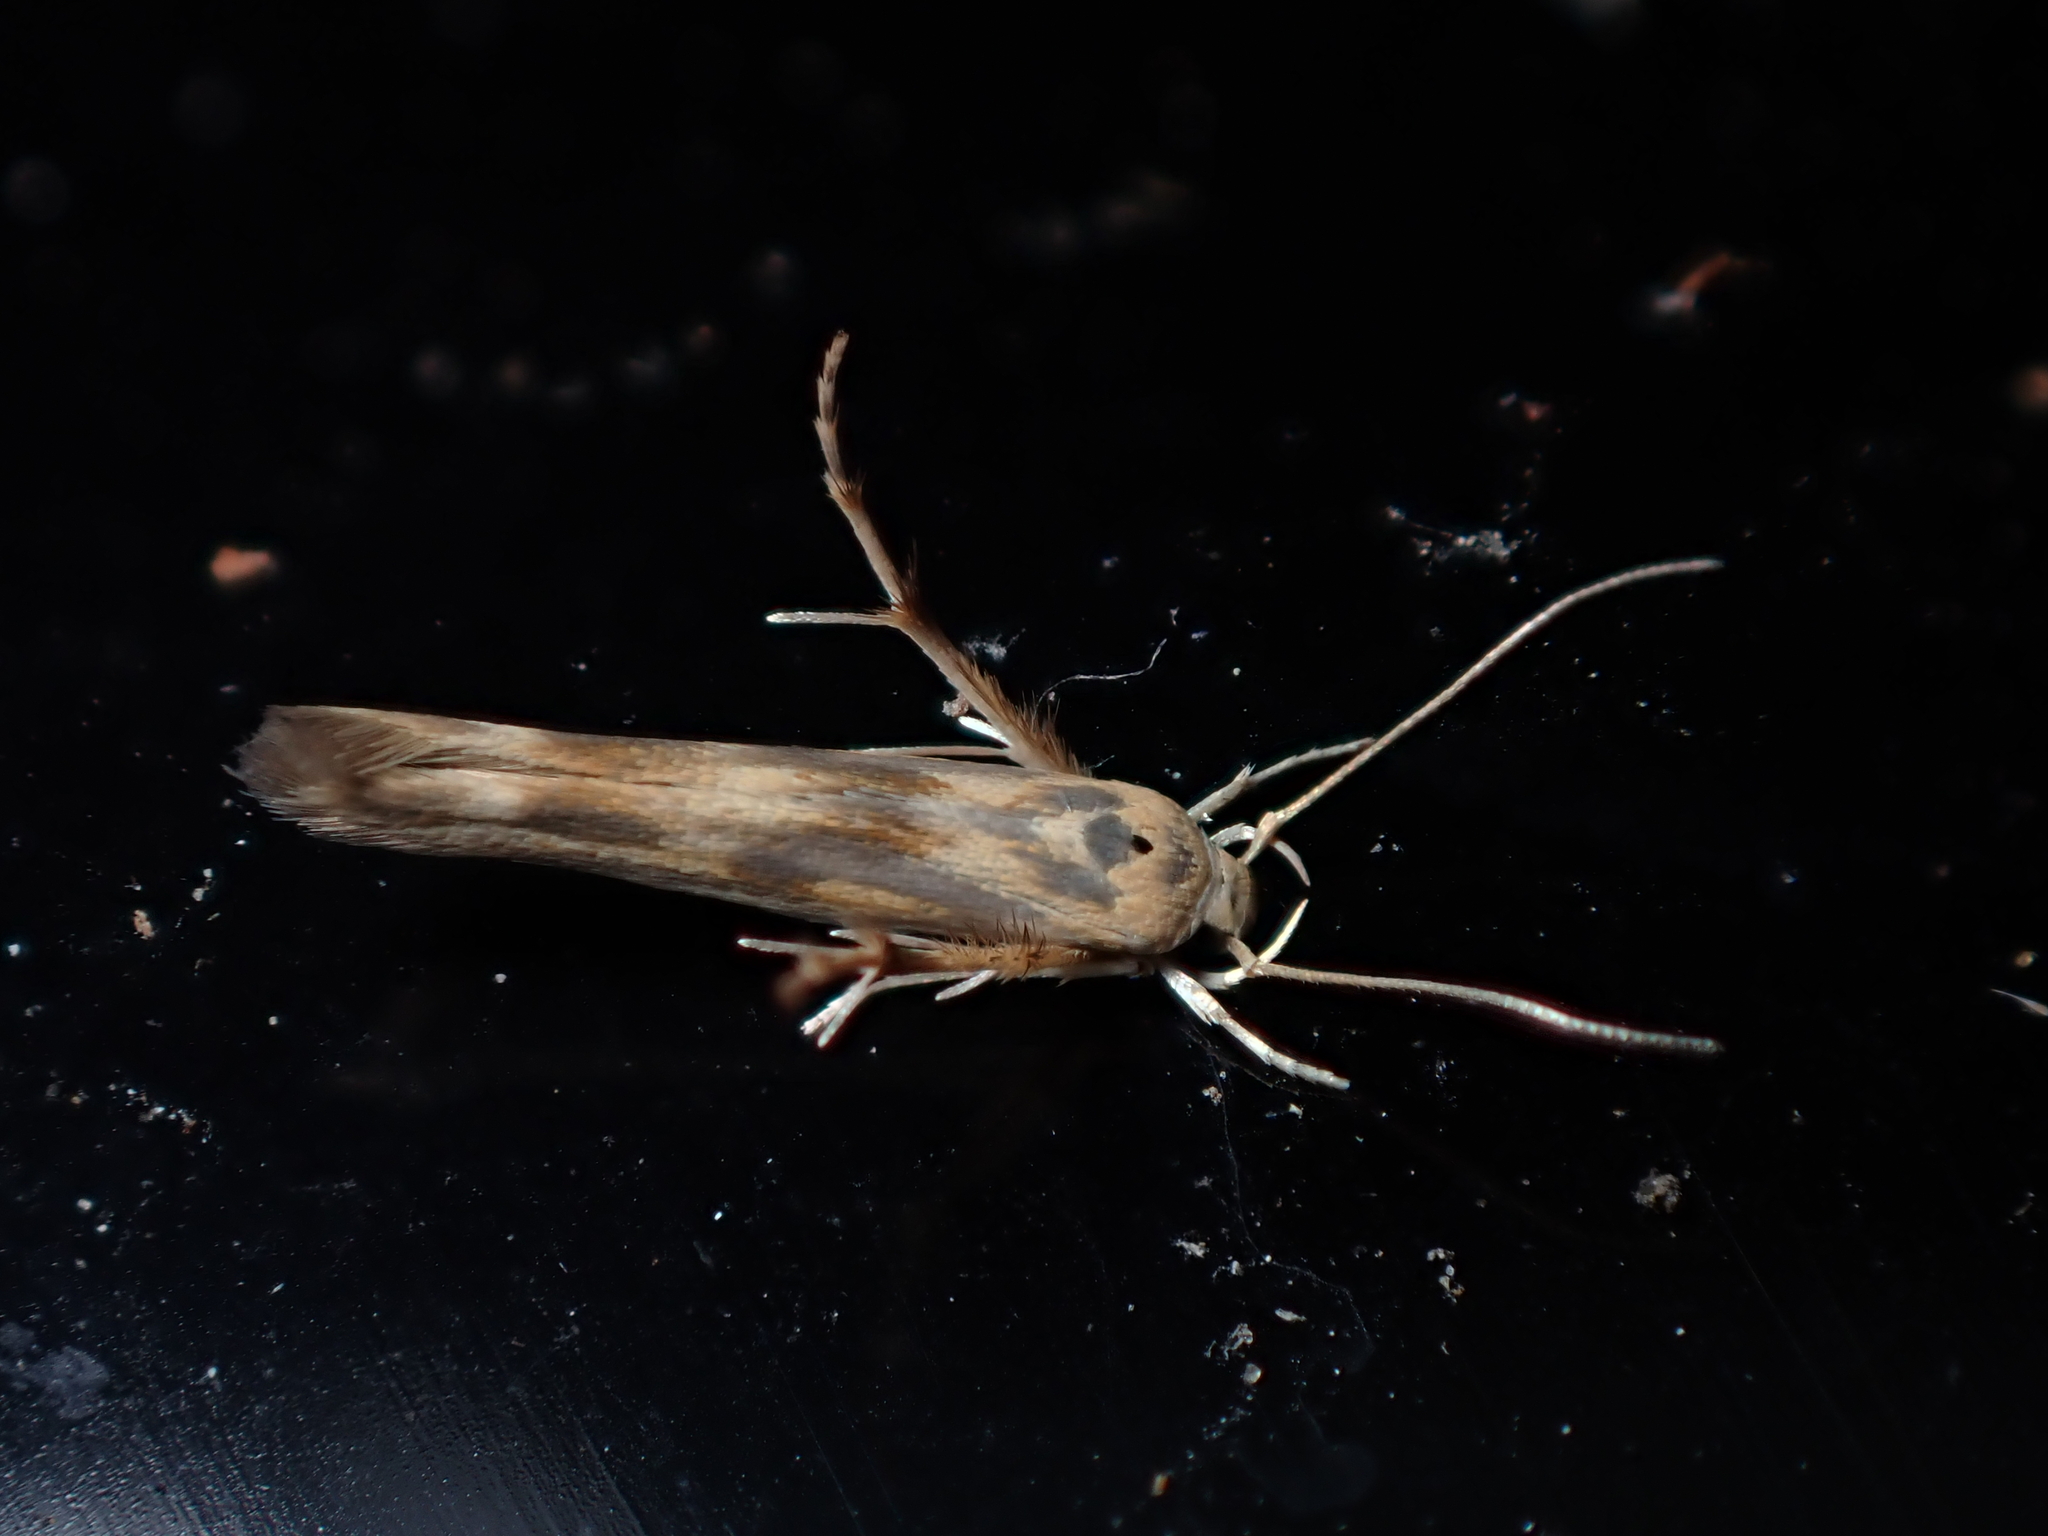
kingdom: Animalia
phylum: Arthropoda
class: Insecta
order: Lepidoptera
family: Stathmopodidae
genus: Stathmopoda
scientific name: Stathmopoda horticola
